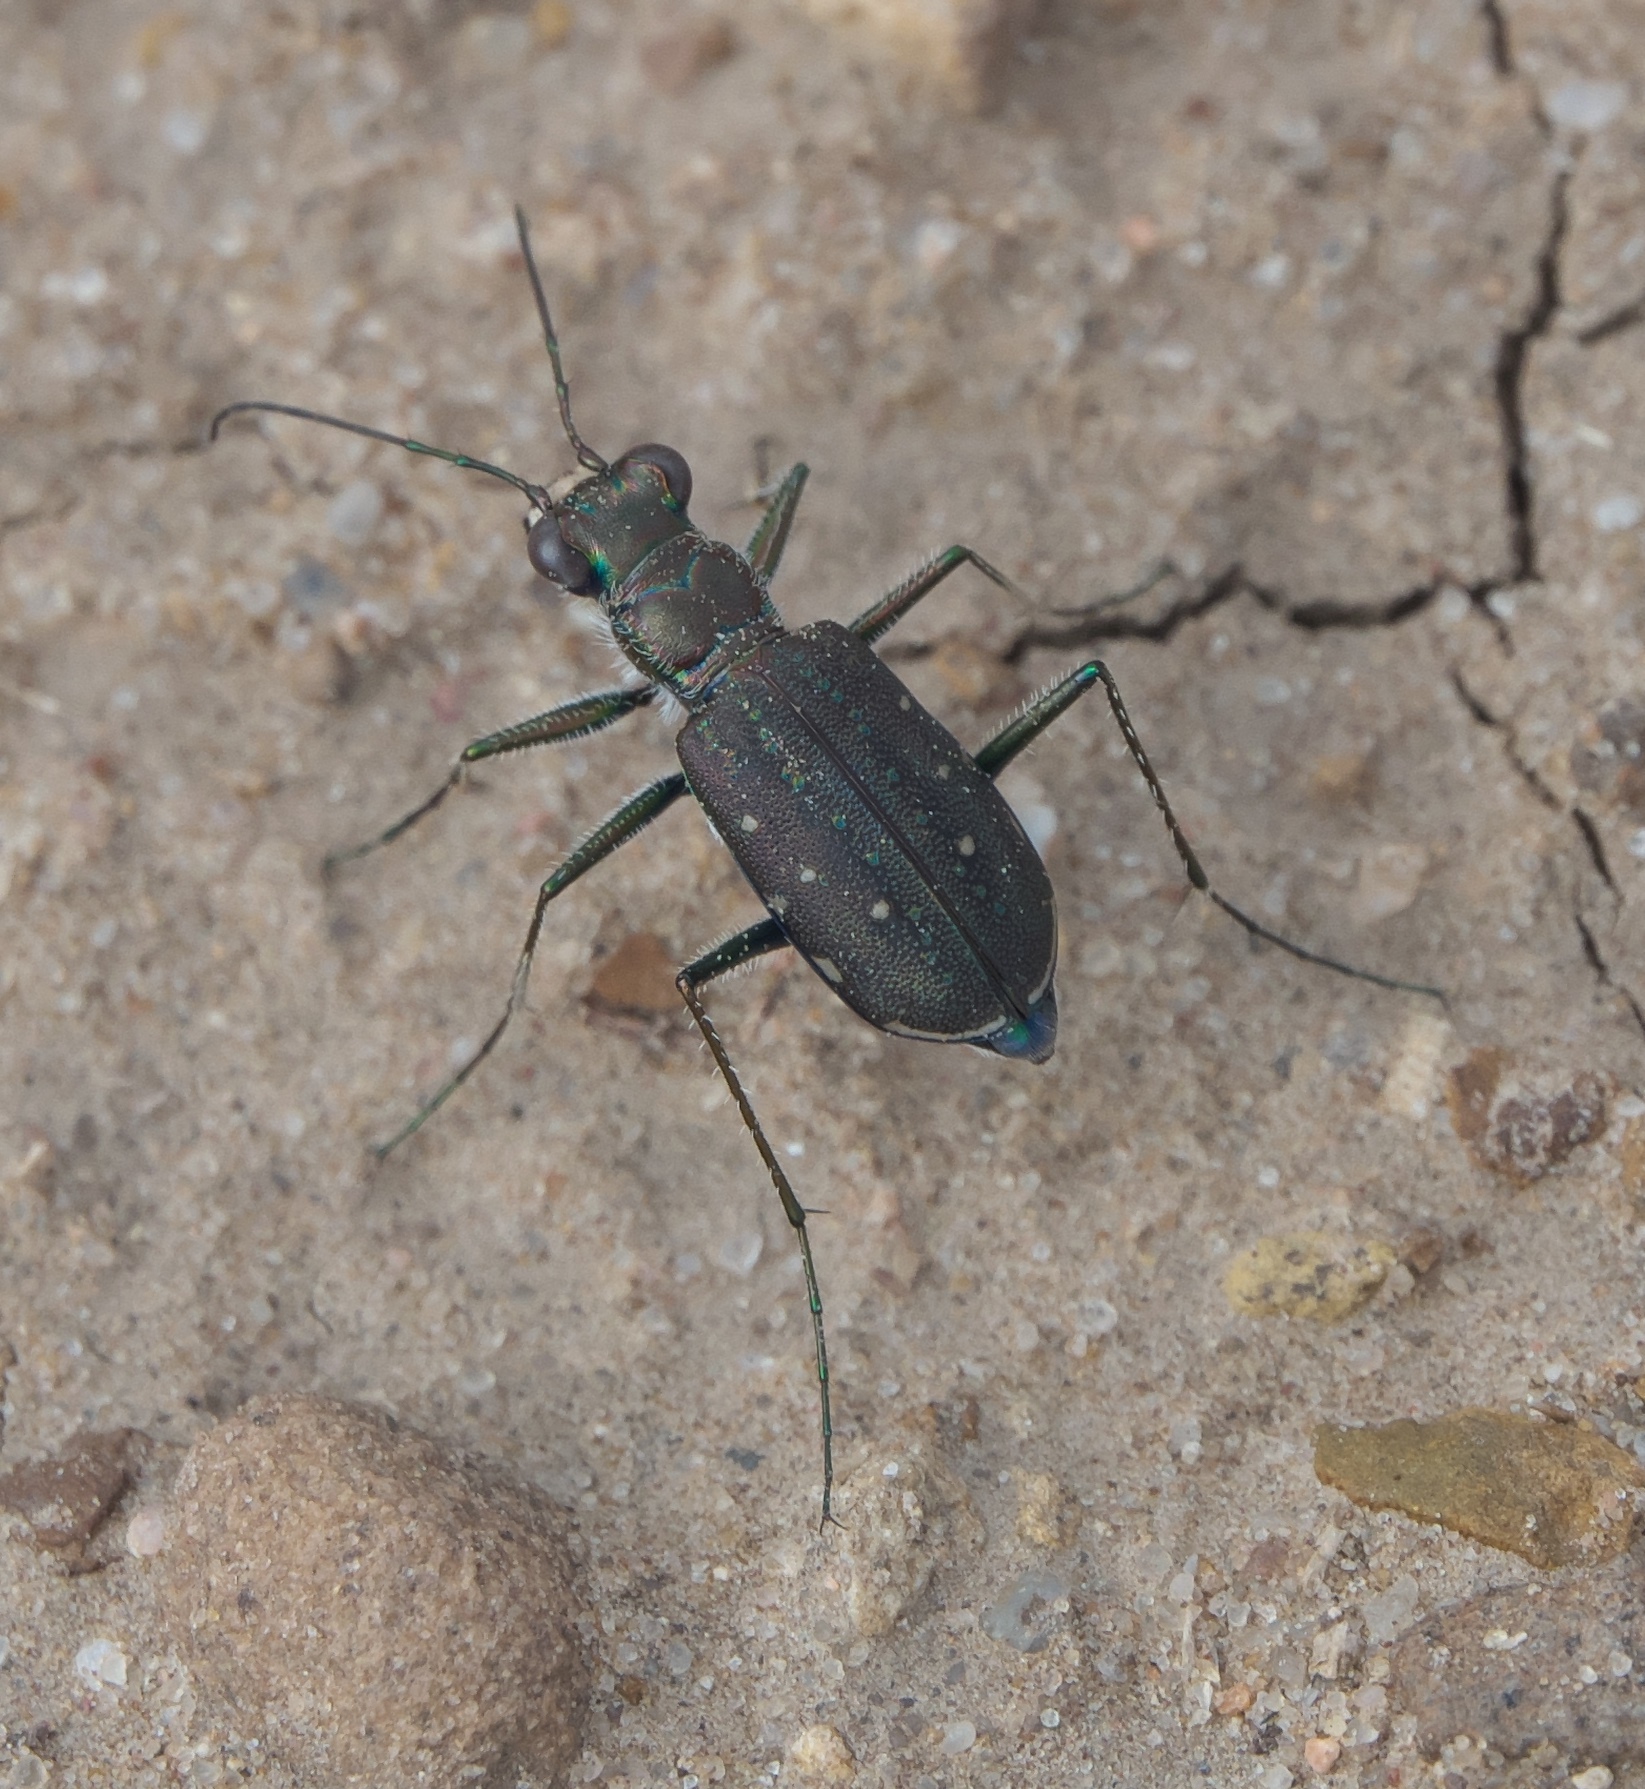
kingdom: Animalia
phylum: Arthropoda
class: Insecta
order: Coleoptera
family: Carabidae
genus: Cicindela
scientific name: Cicindela punctulata
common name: Punctured tiger beetle
